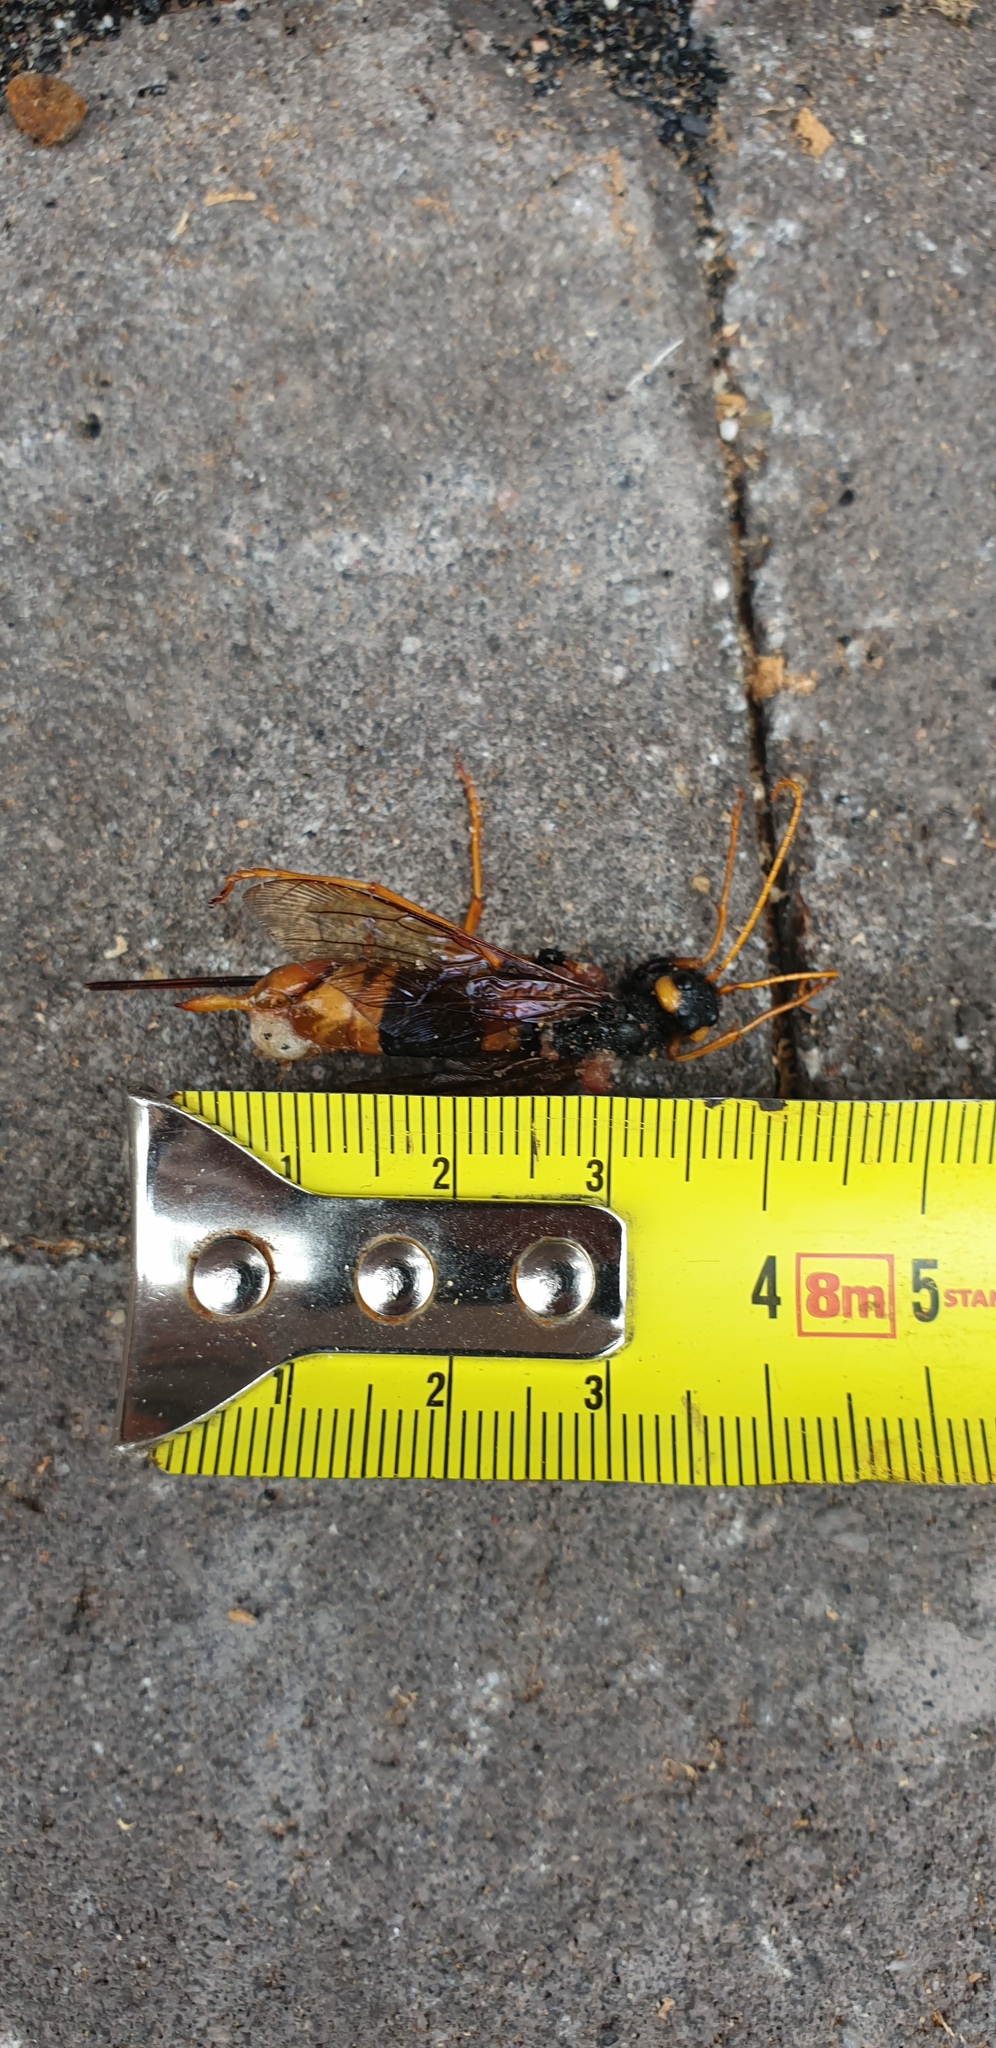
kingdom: Animalia
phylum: Arthropoda
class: Insecta
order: Hymenoptera
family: Siricidae
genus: Urocerus
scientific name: Urocerus gigas
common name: Giant woodwasp
